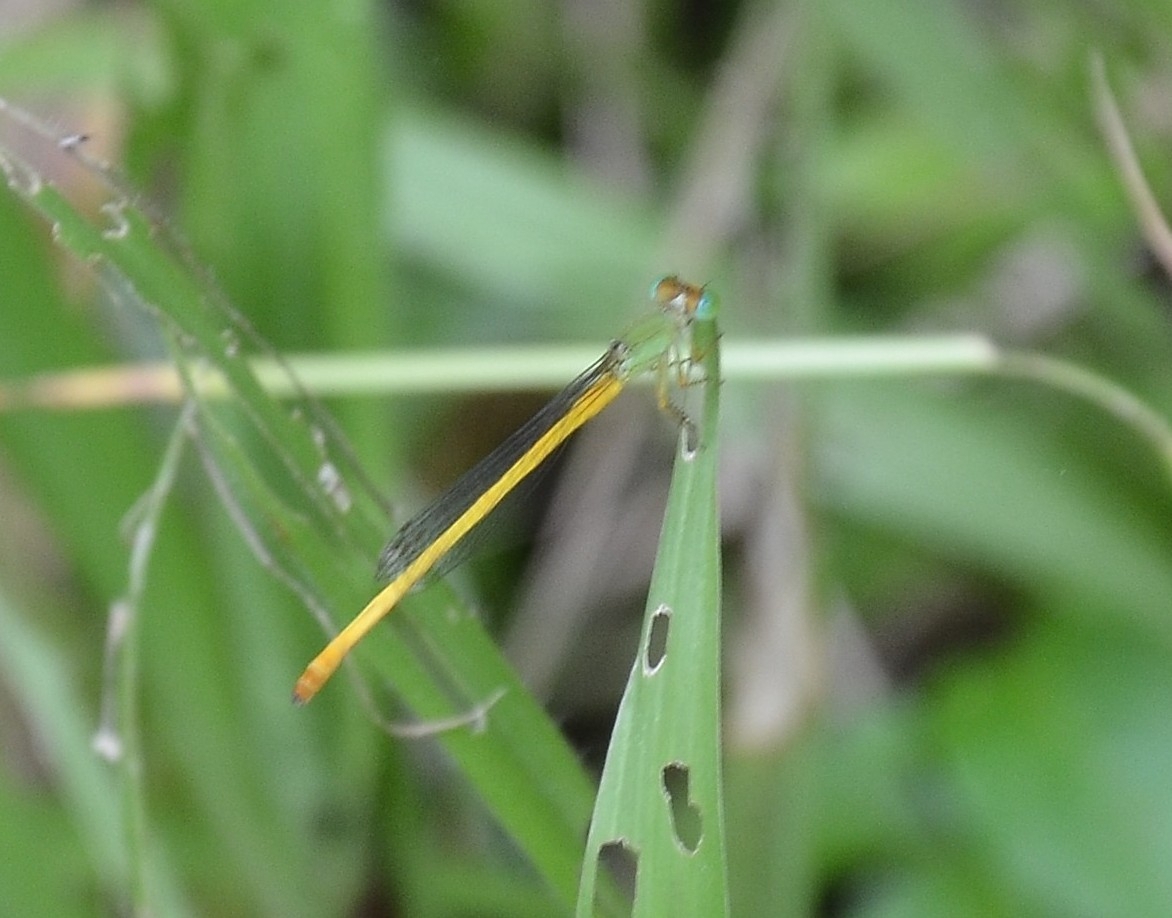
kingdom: Animalia
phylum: Arthropoda
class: Insecta
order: Odonata
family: Coenagrionidae
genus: Ceriagrion
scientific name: Ceriagrion coromandelianum
